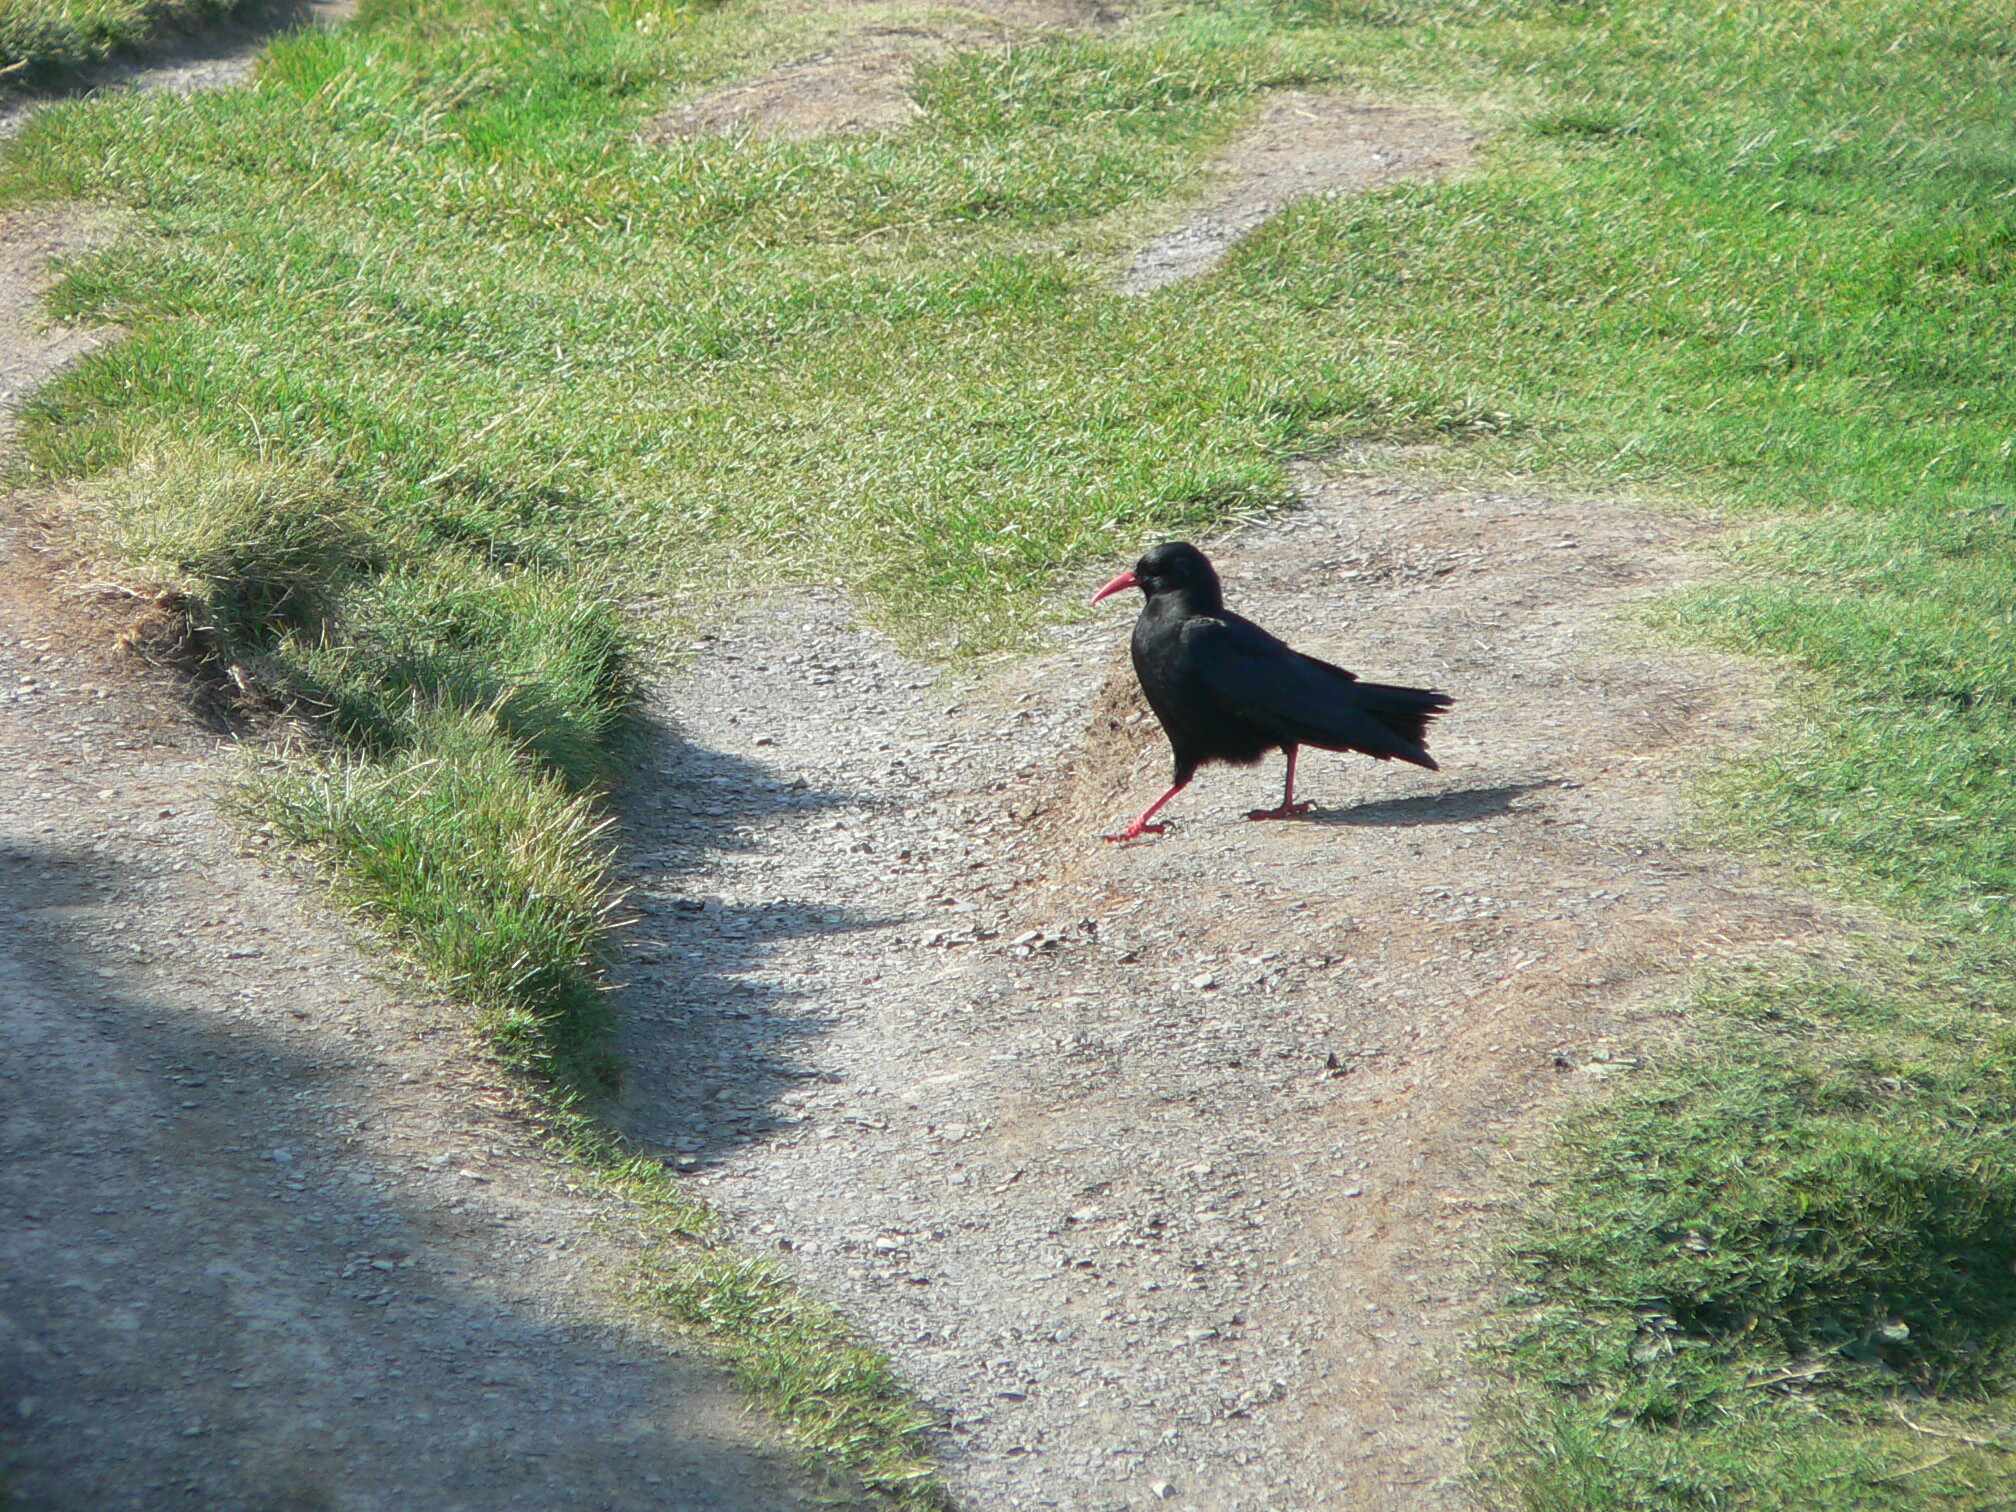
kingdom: Animalia
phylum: Chordata
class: Aves
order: Passeriformes
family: Corvidae
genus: Pyrrhocorax
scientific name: Pyrrhocorax pyrrhocorax
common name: Red-billed chough
